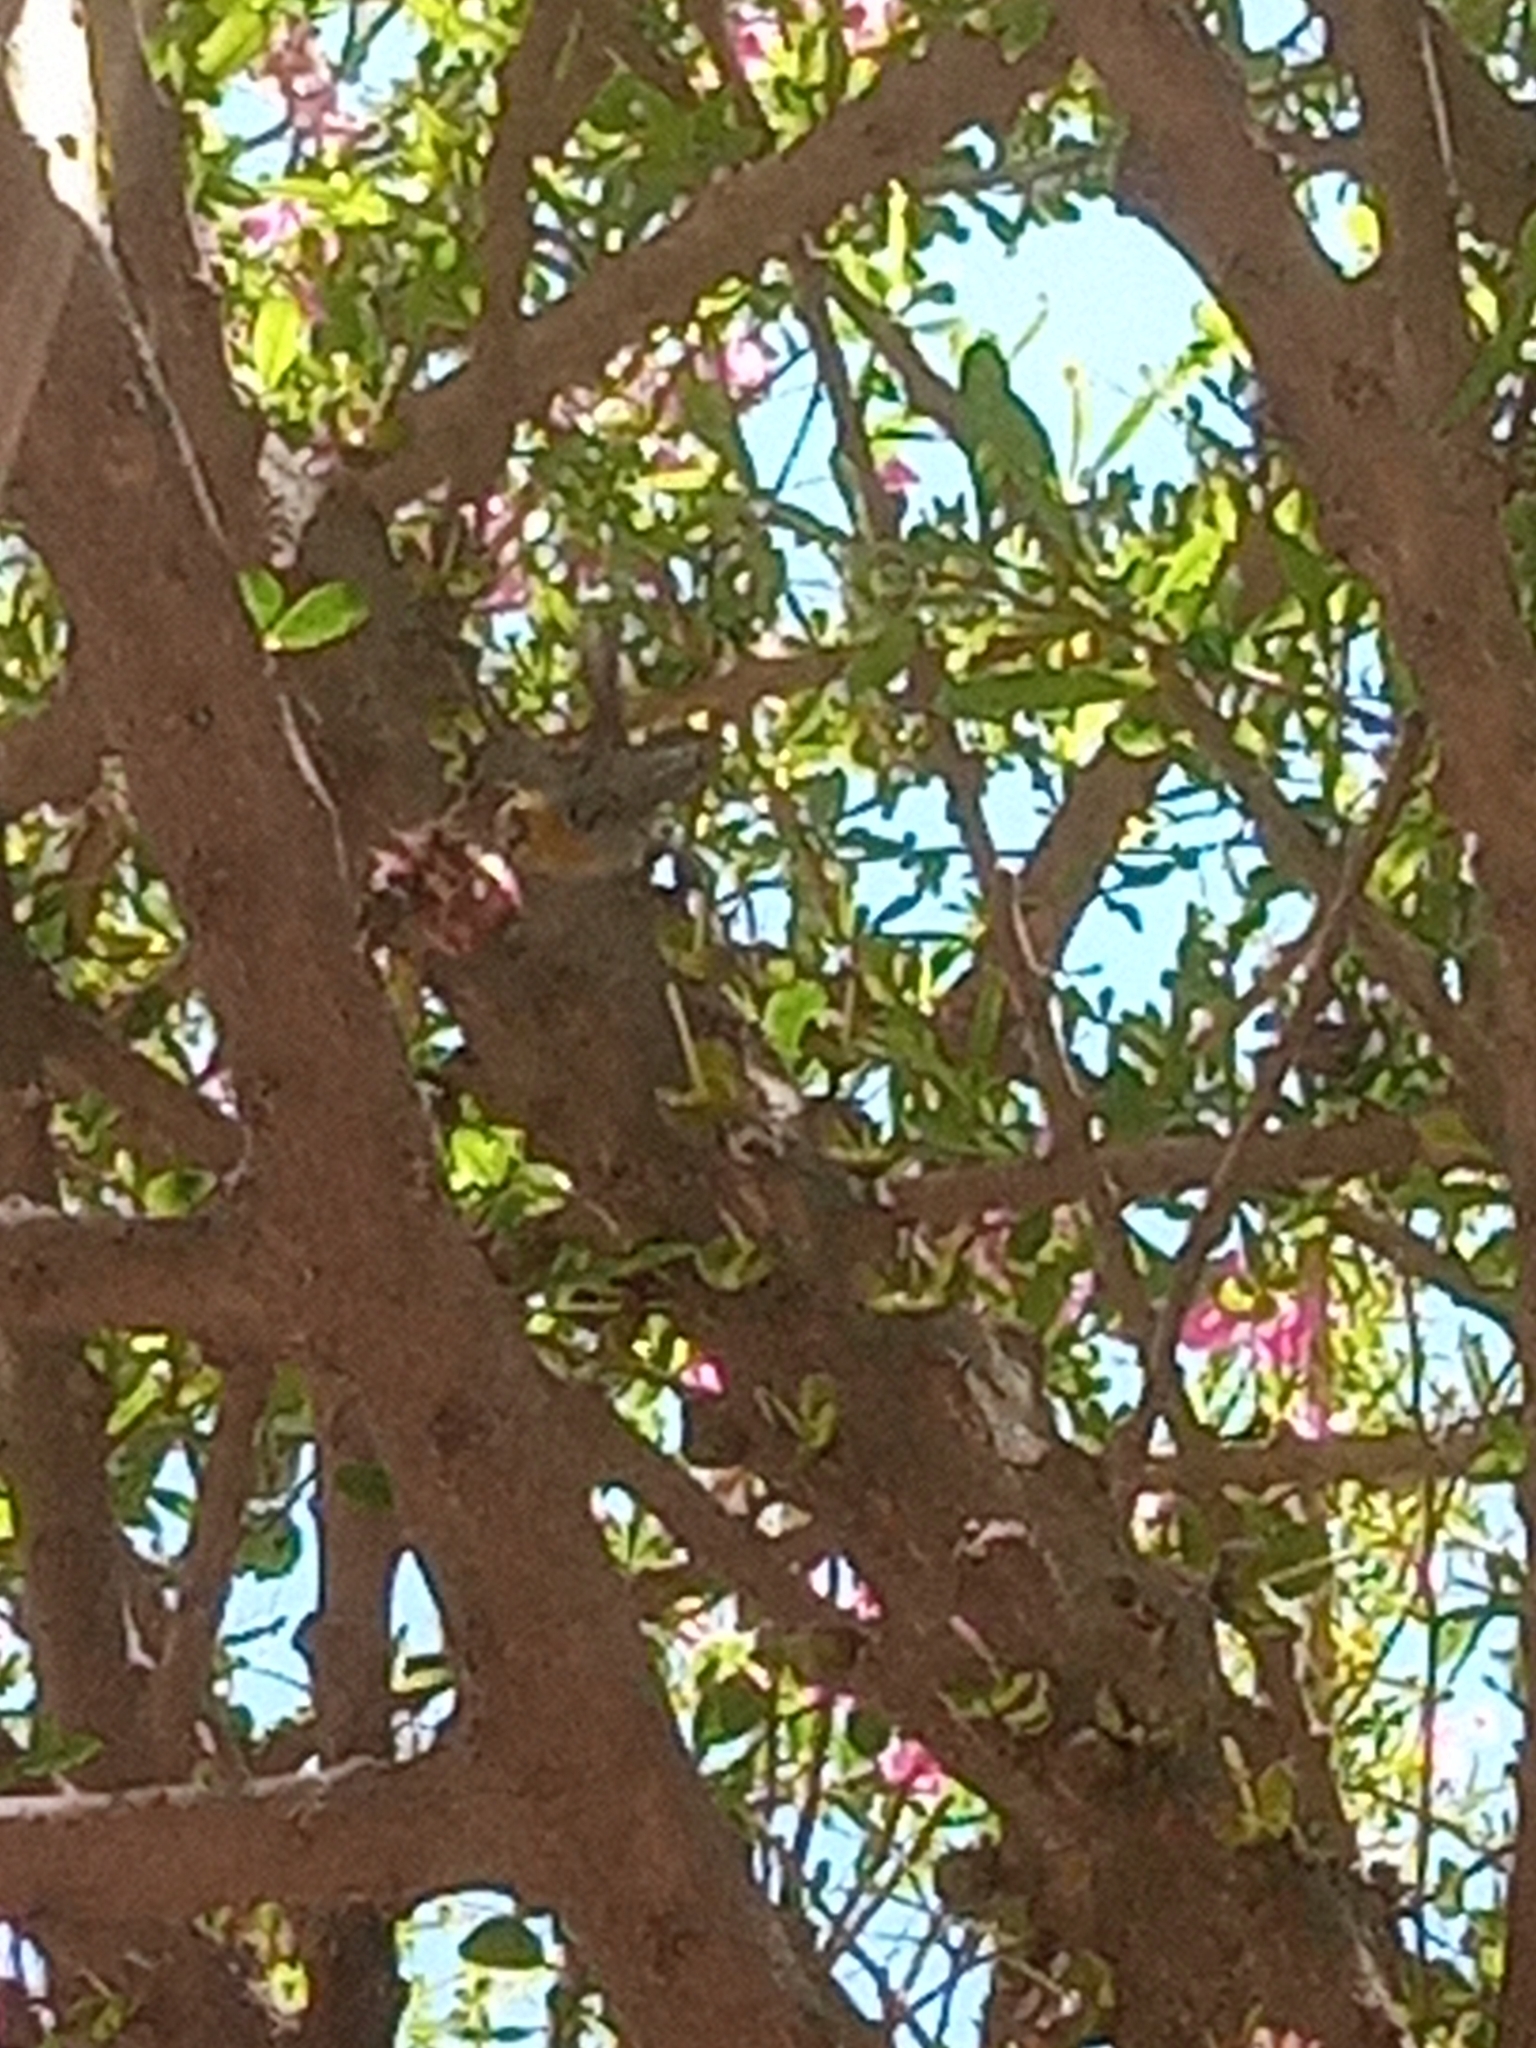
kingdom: Animalia
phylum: Chordata
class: Aves
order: Passeriformes
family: Remizidae
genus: Auriparus
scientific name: Auriparus flaviceps
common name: Verdin
